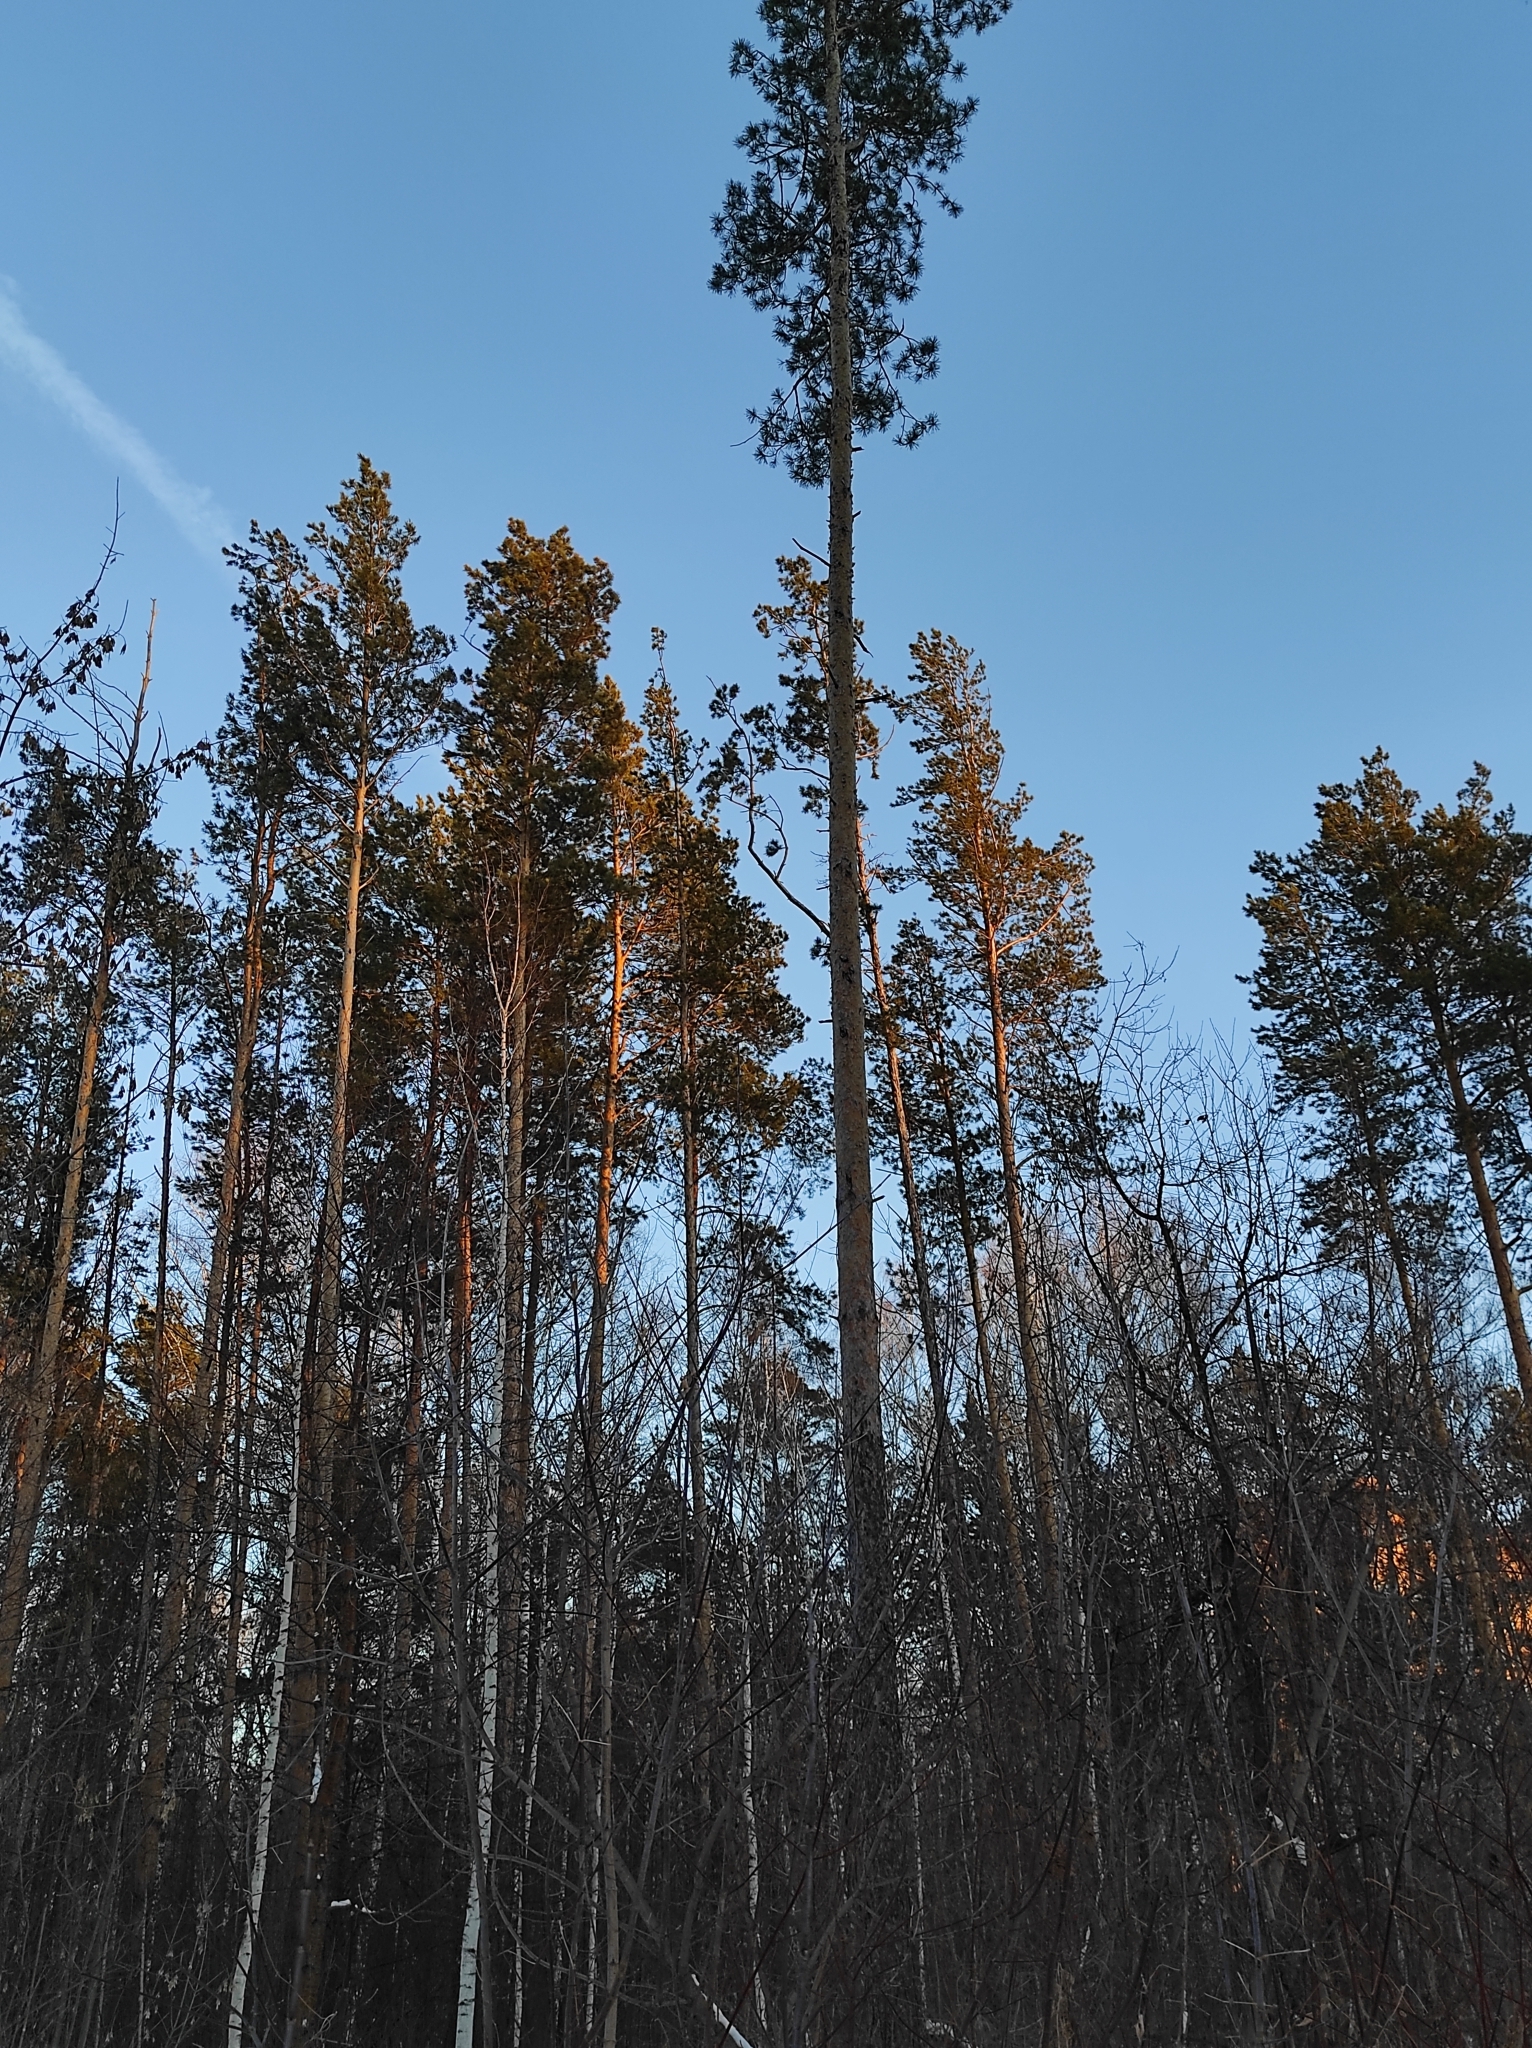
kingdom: Plantae
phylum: Tracheophyta
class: Pinopsida
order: Pinales
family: Pinaceae
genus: Pinus
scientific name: Pinus sylvestris
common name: Scots pine
